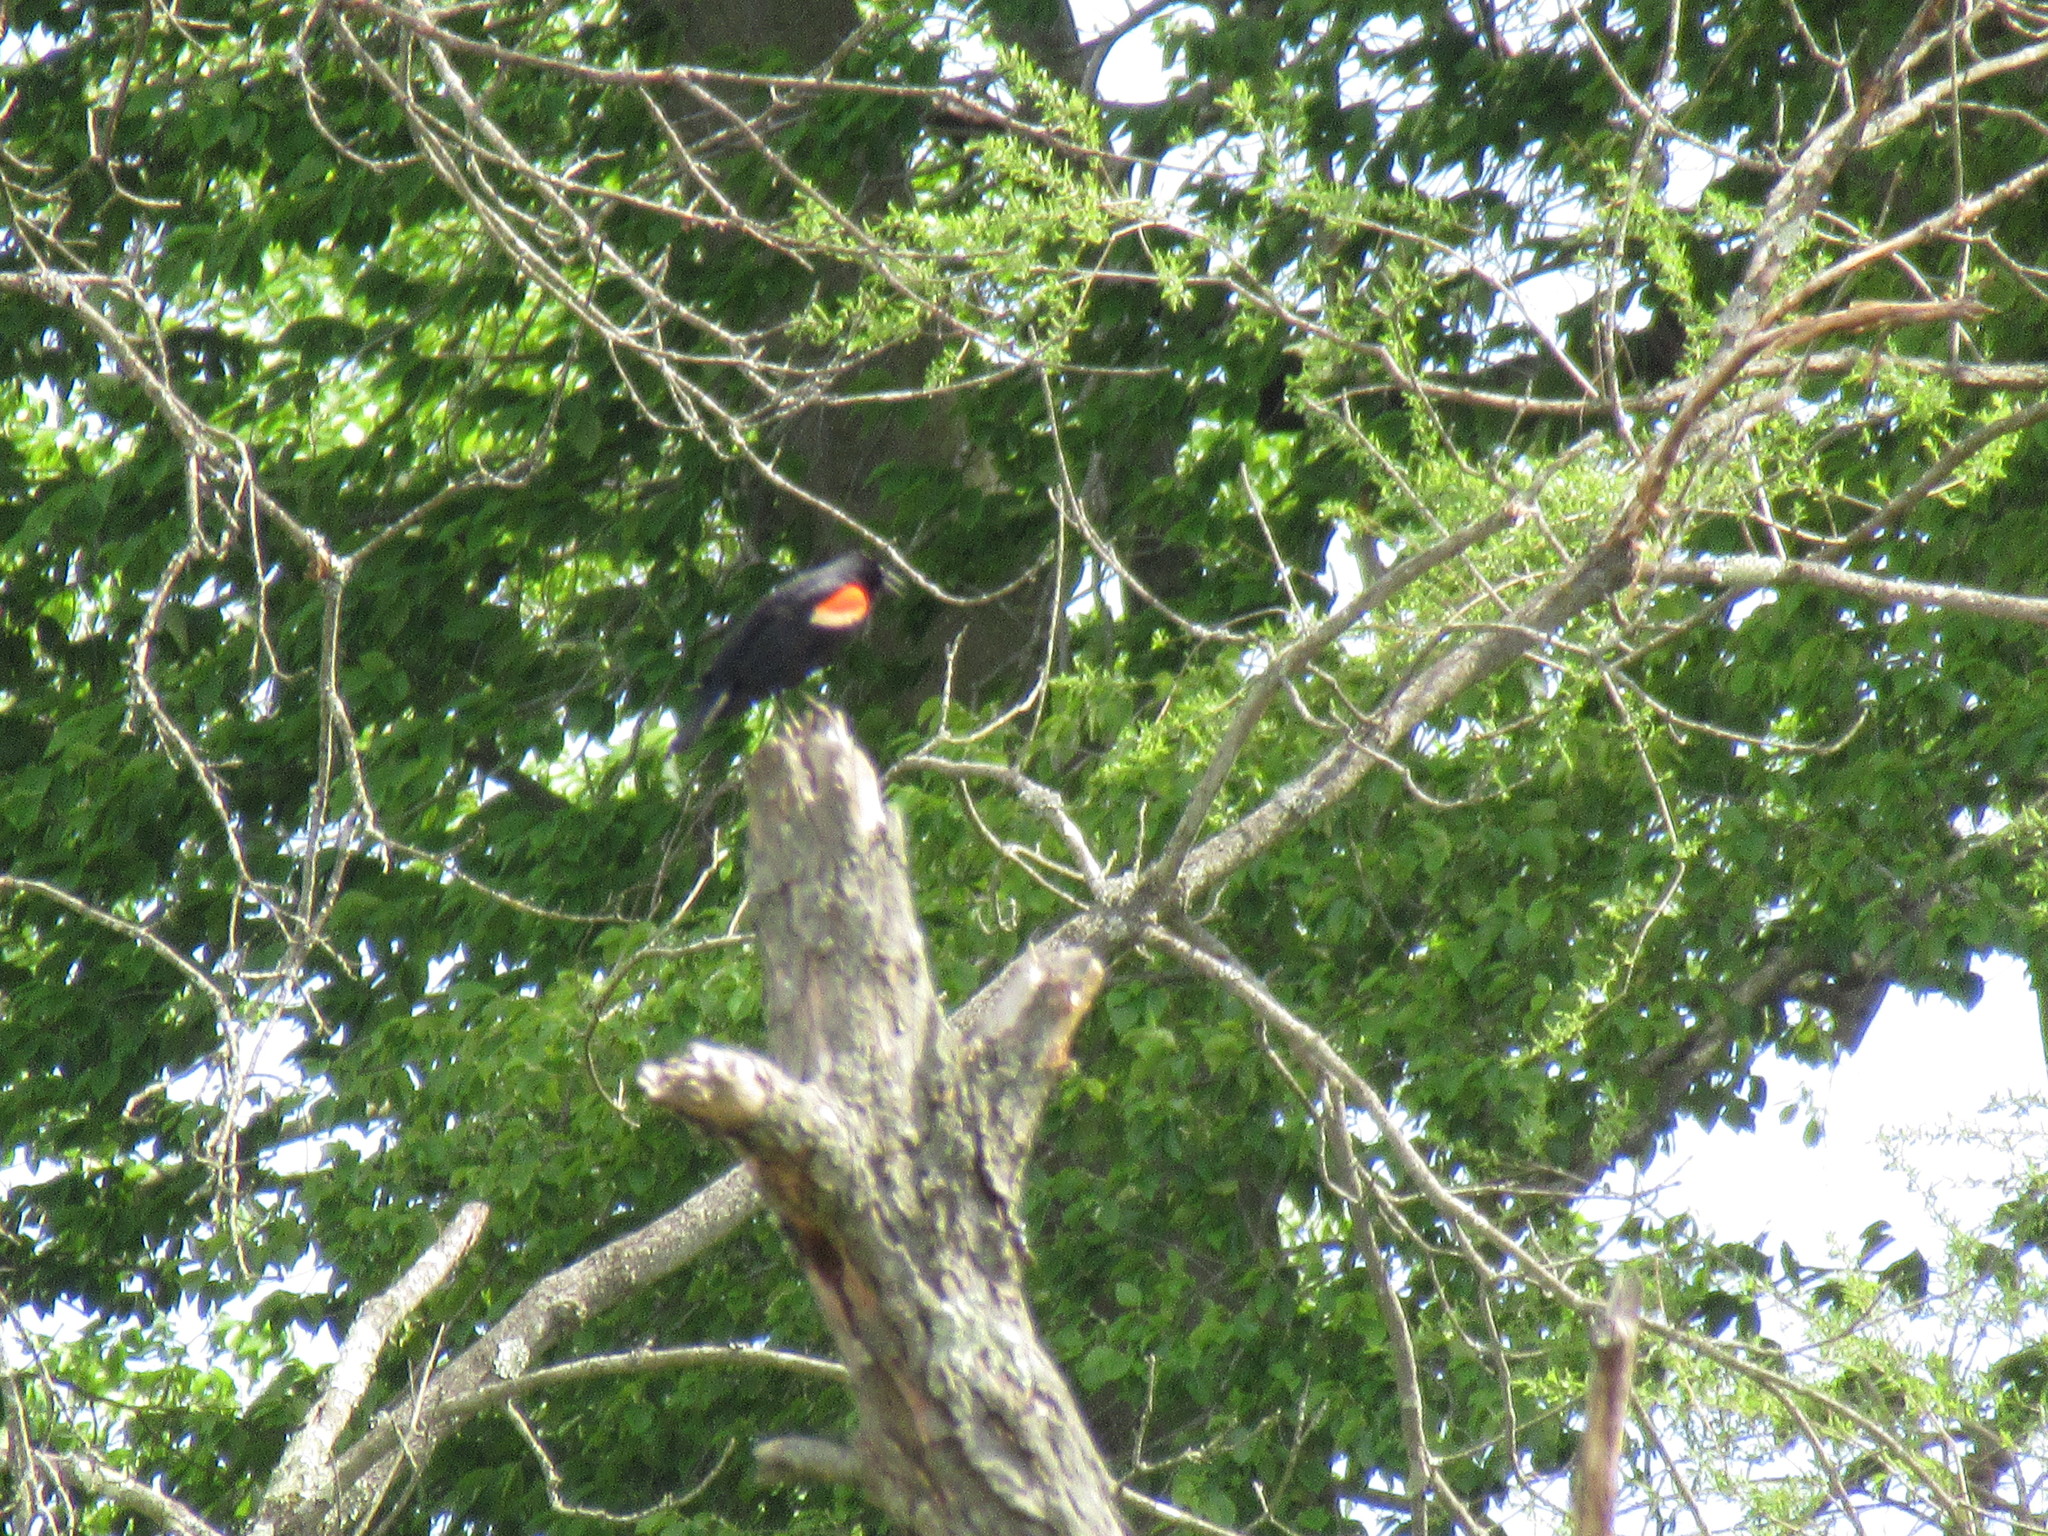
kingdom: Animalia
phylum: Chordata
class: Aves
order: Passeriformes
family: Icteridae
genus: Agelaius
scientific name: Agelaius phoeniceus
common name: Red-winged blackbird
